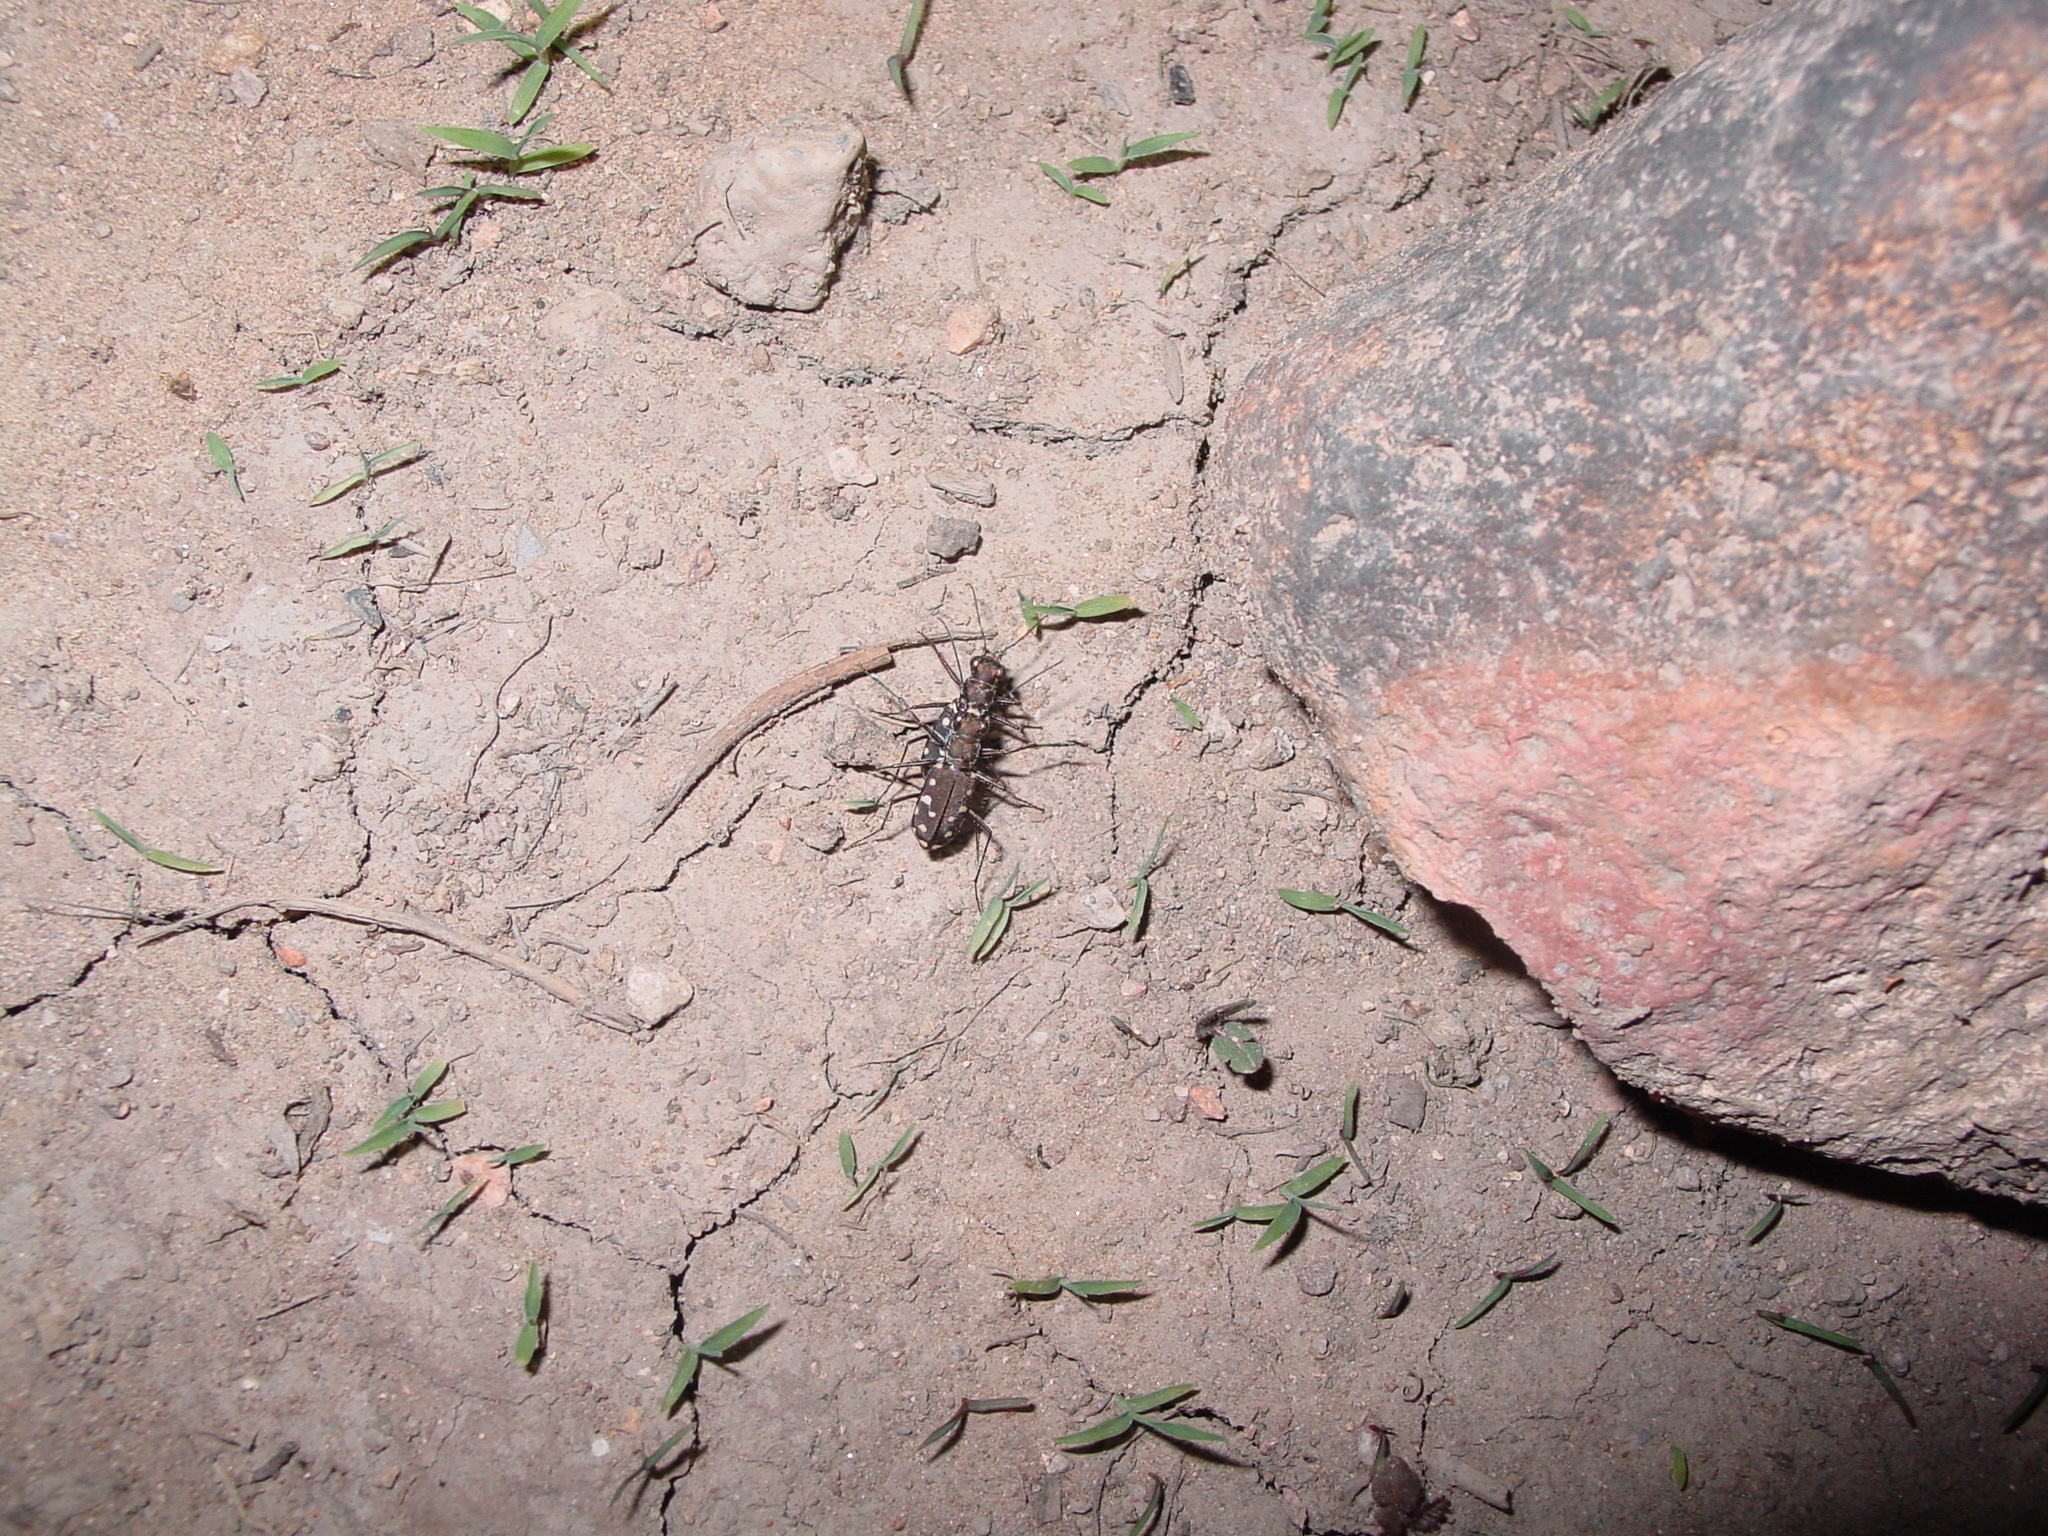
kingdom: Animalia
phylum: Arthropoda
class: Insecta
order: Coleoptera
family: Carabidae
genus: Cicindela
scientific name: Cicindela sedecimpunctata
